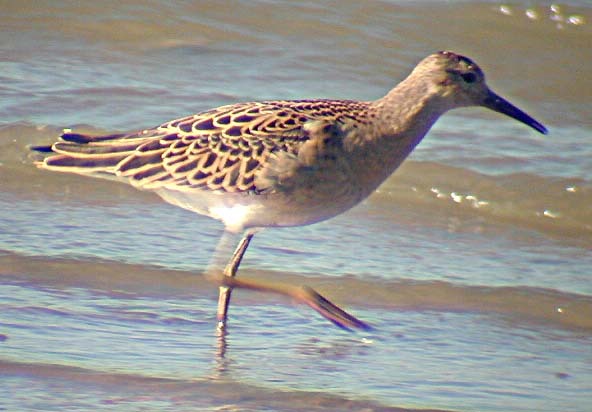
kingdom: Animalia
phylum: Chordata
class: Aves
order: Charadriiformes
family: Scolopacidae
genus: Calidris
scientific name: Calidris pugnax
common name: Ruff
